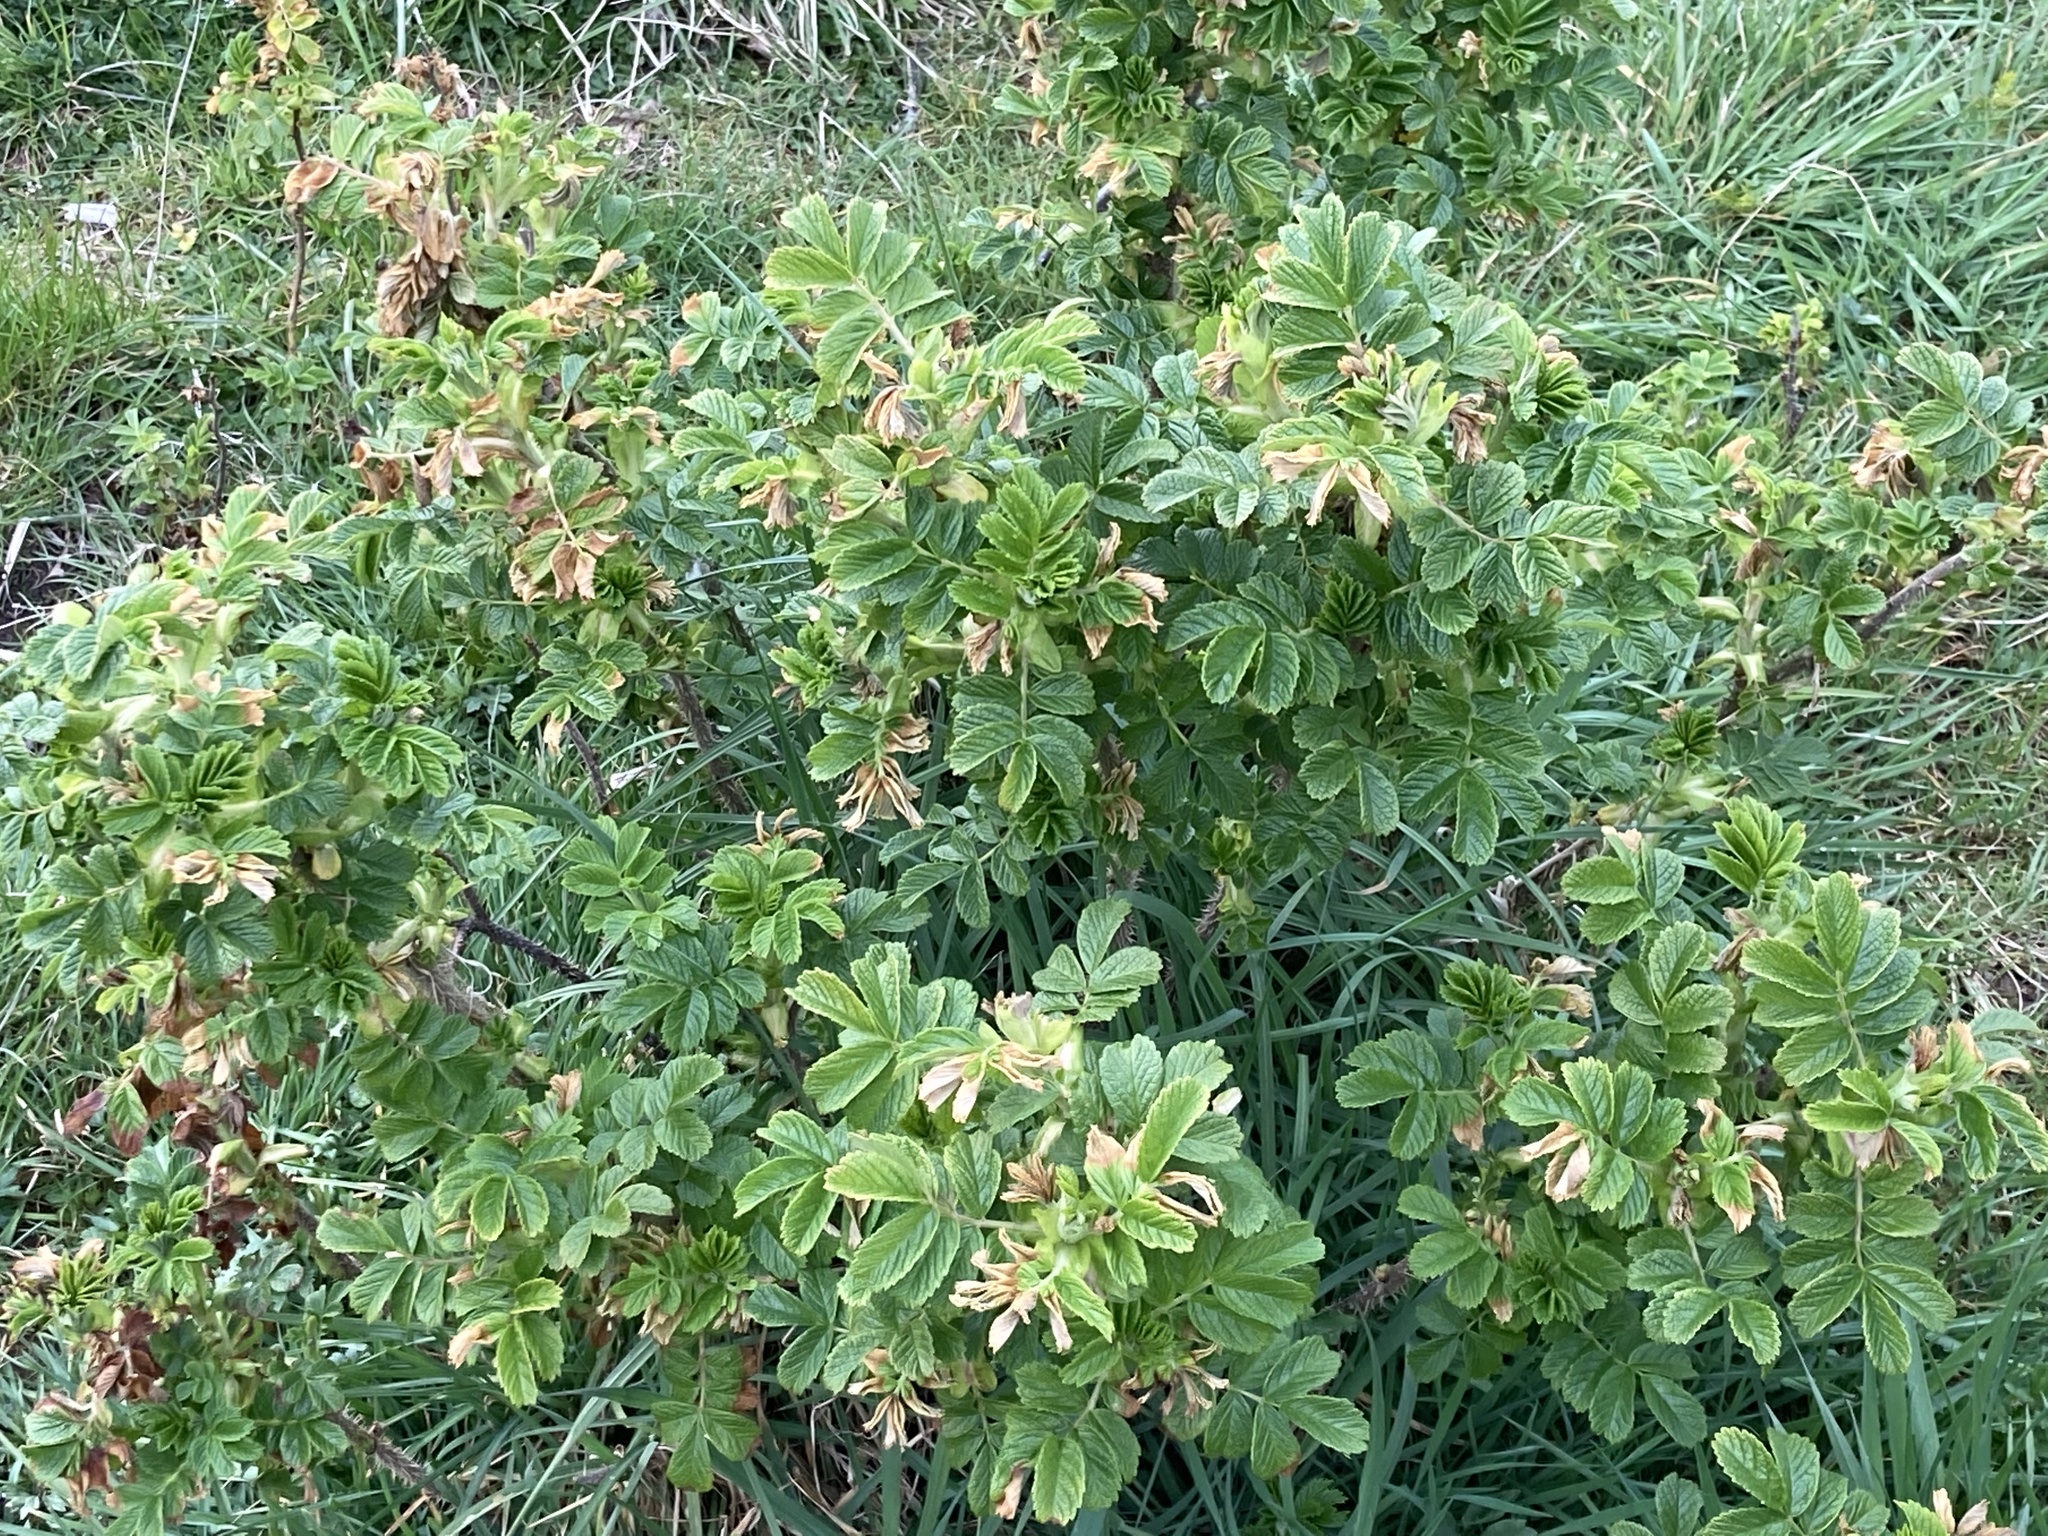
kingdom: Plantae
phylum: Tracheophyta
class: Magnoliopsida
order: Rosales
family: Rosaceae
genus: Rosa
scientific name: Rosa rugosa
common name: Japanese rose
